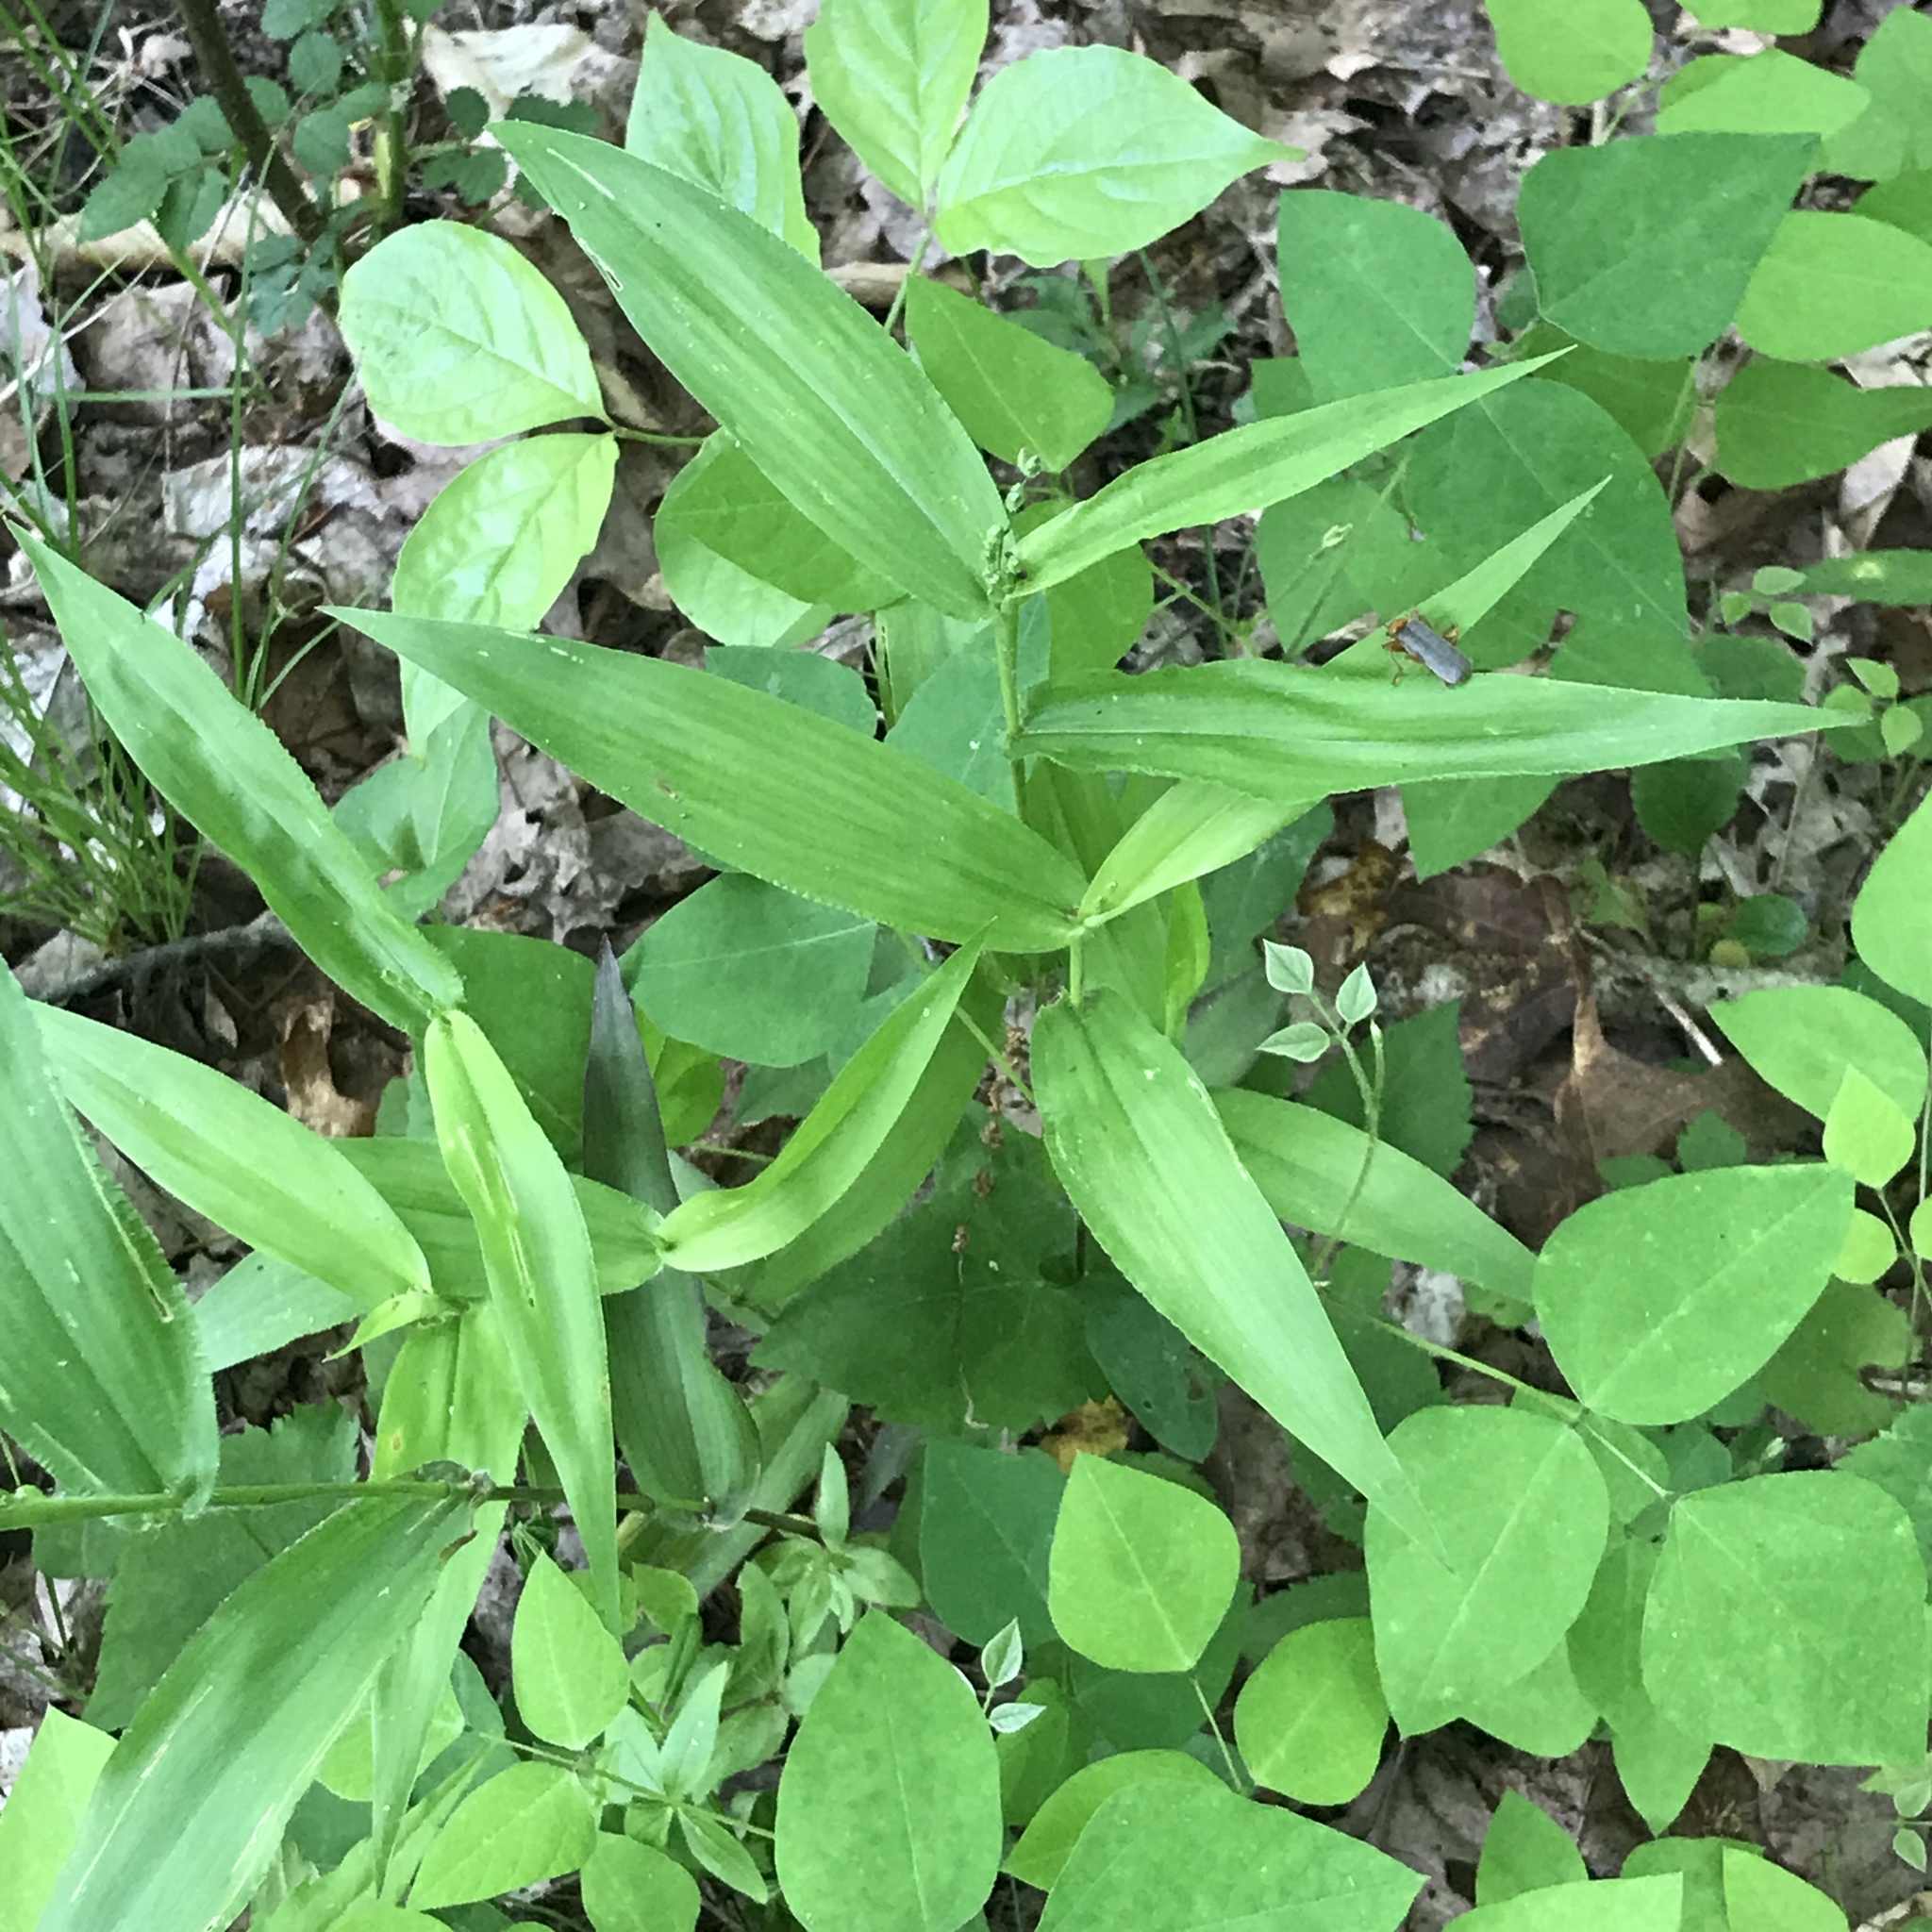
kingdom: Animalia
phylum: Arthropoda
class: Insecta
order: Coleoptera
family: Cantharidae
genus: Pacificanthia
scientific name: Pacificanthia rotundicollis
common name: Brown leatherwing beetle
